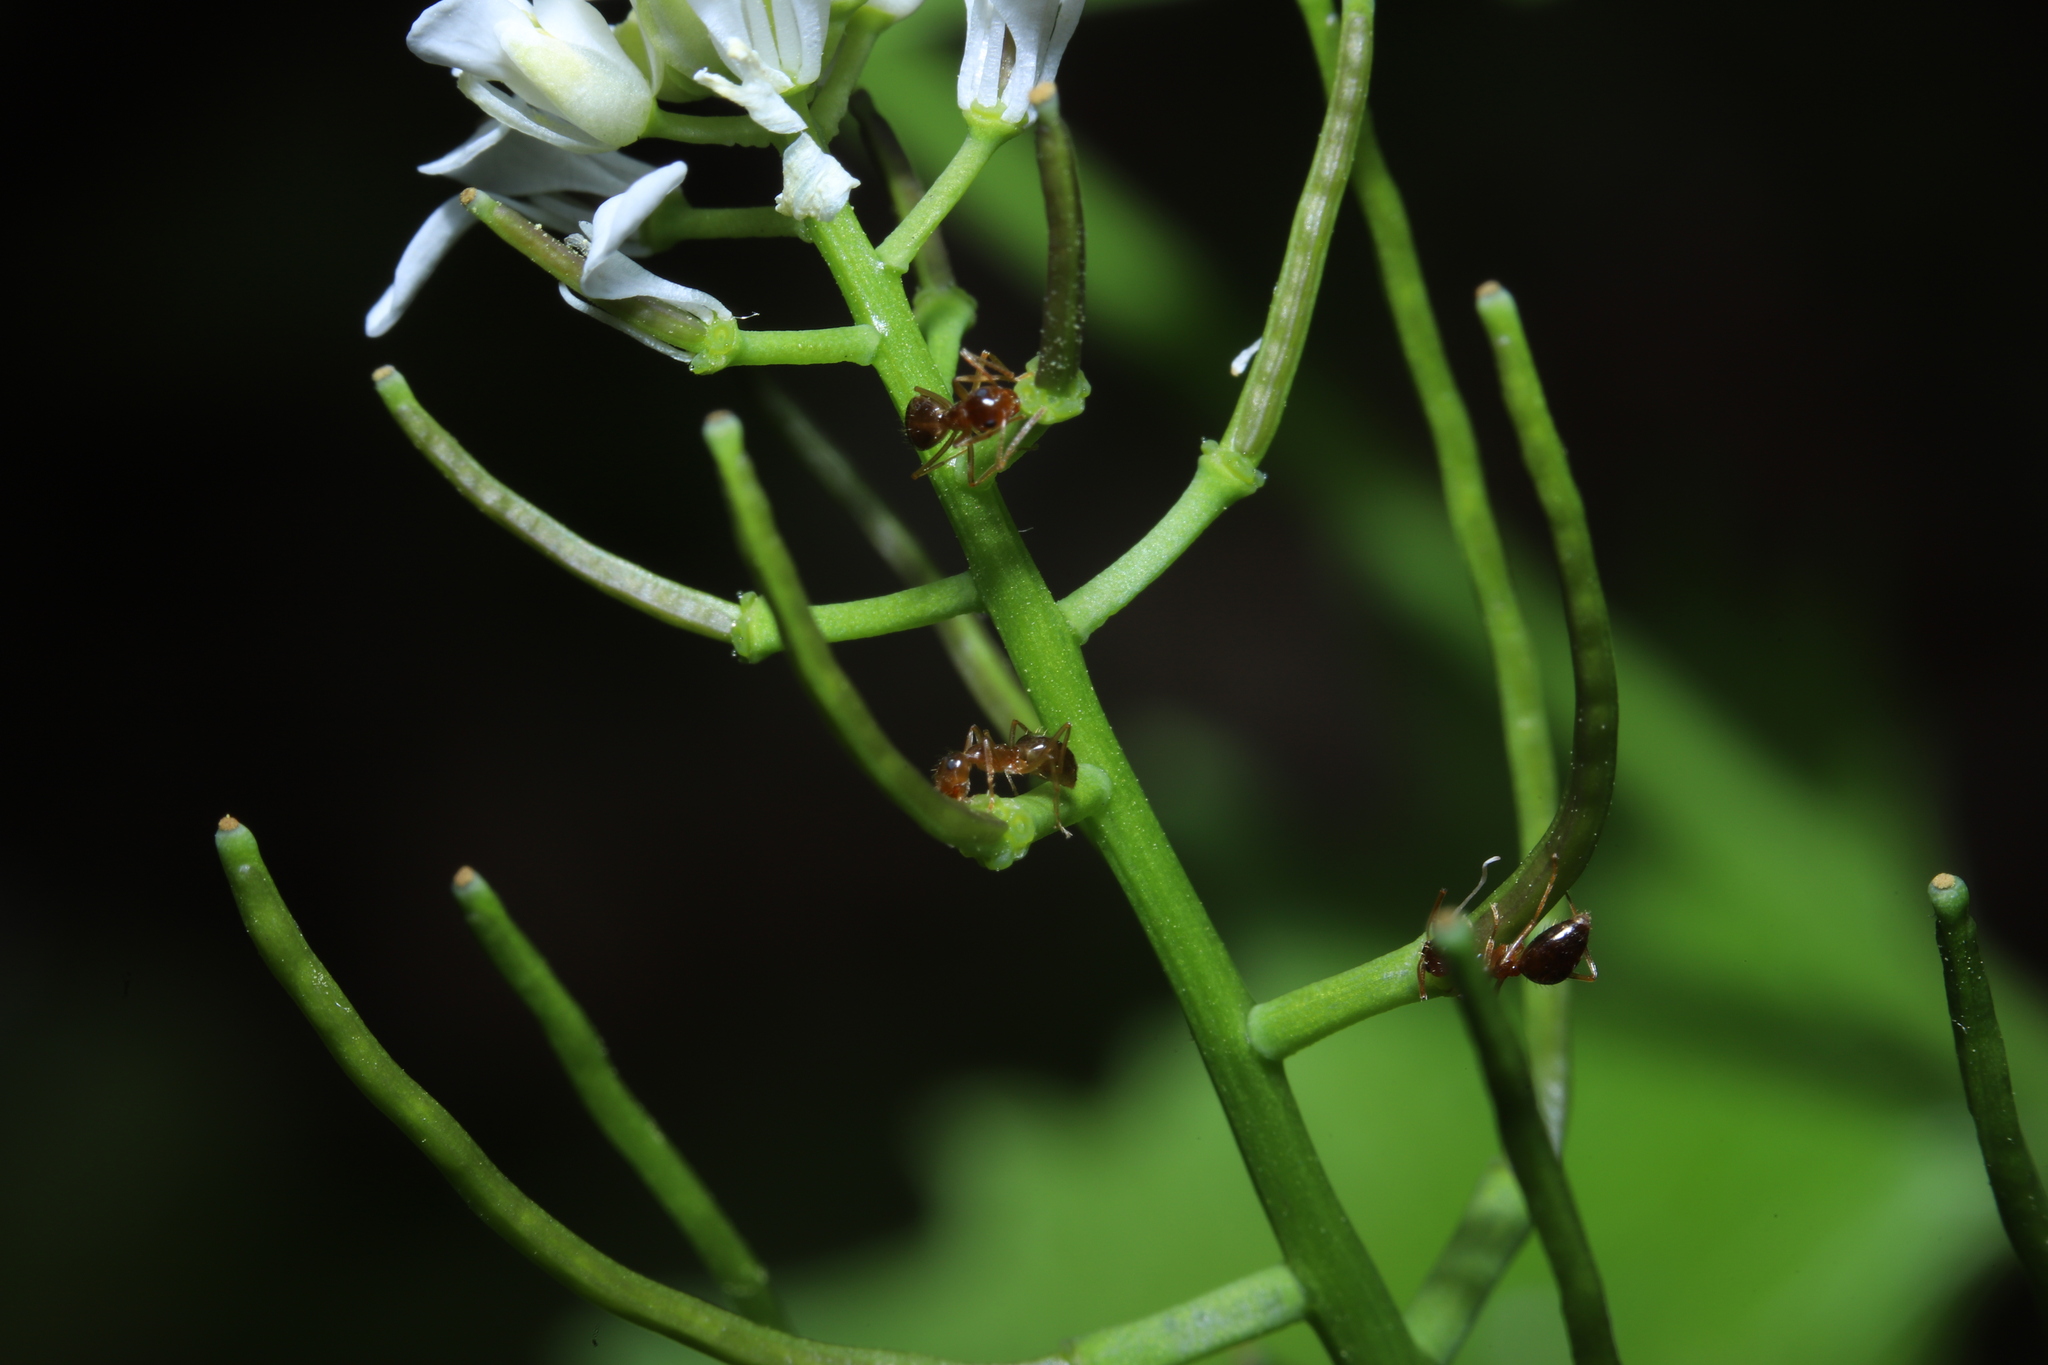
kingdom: Animalia
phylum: Arthropoda
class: Insecta
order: Hymenoptera
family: Formicidae
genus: Prenolepis
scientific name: Prenolepis imparis
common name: Small honey ant
